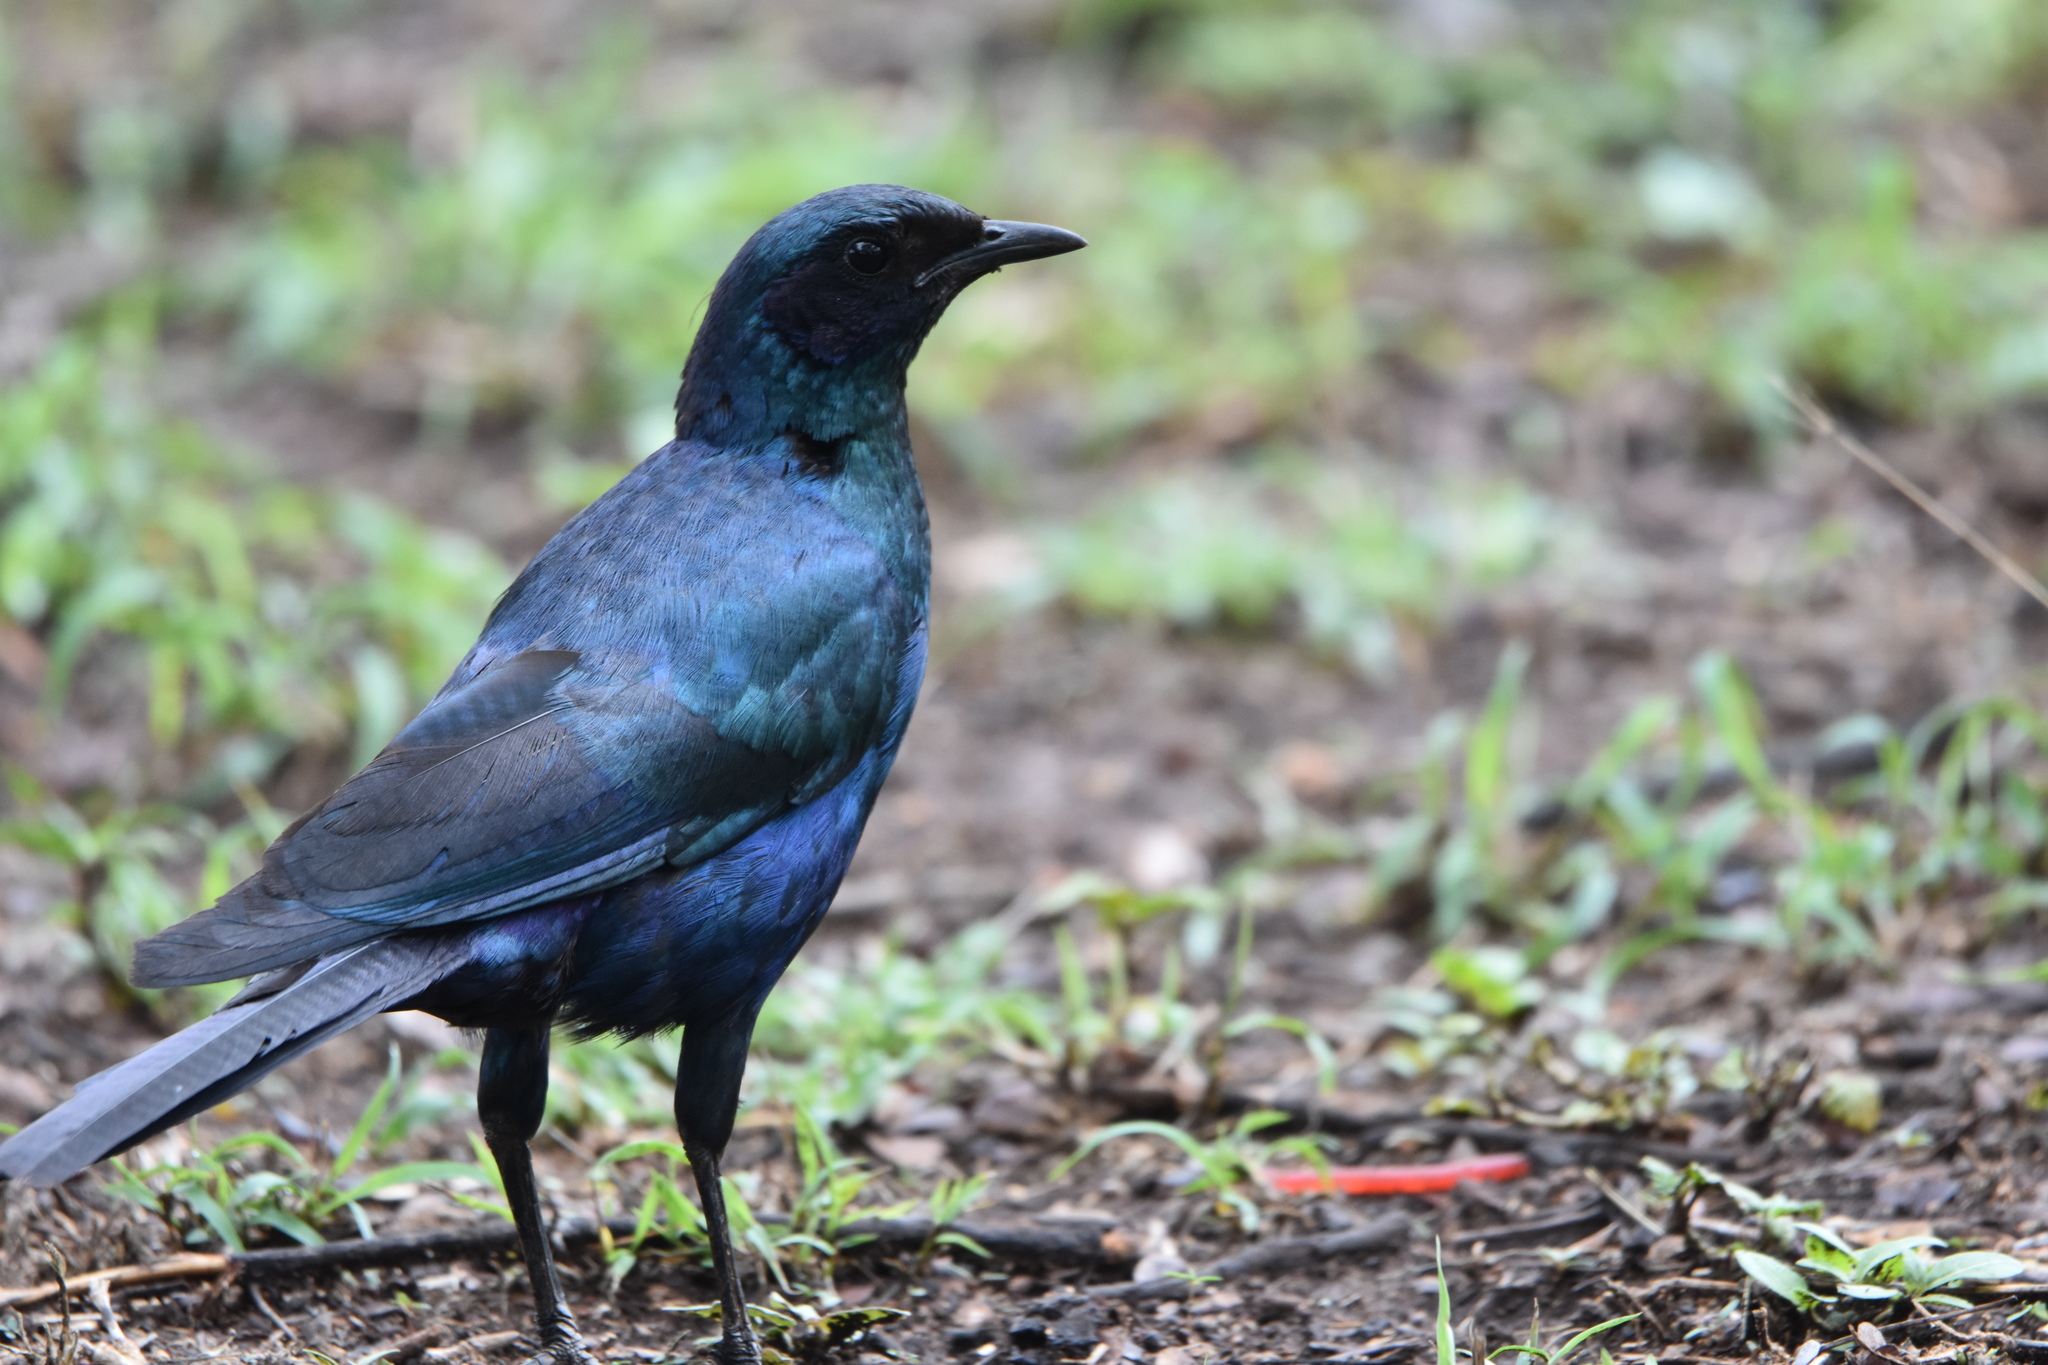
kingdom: Animalia
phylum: Chordata
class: Aves
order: Passeriformes
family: Sturnidae
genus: Lamprotornis
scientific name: Lamprotornis australis
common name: Burchell's starling
